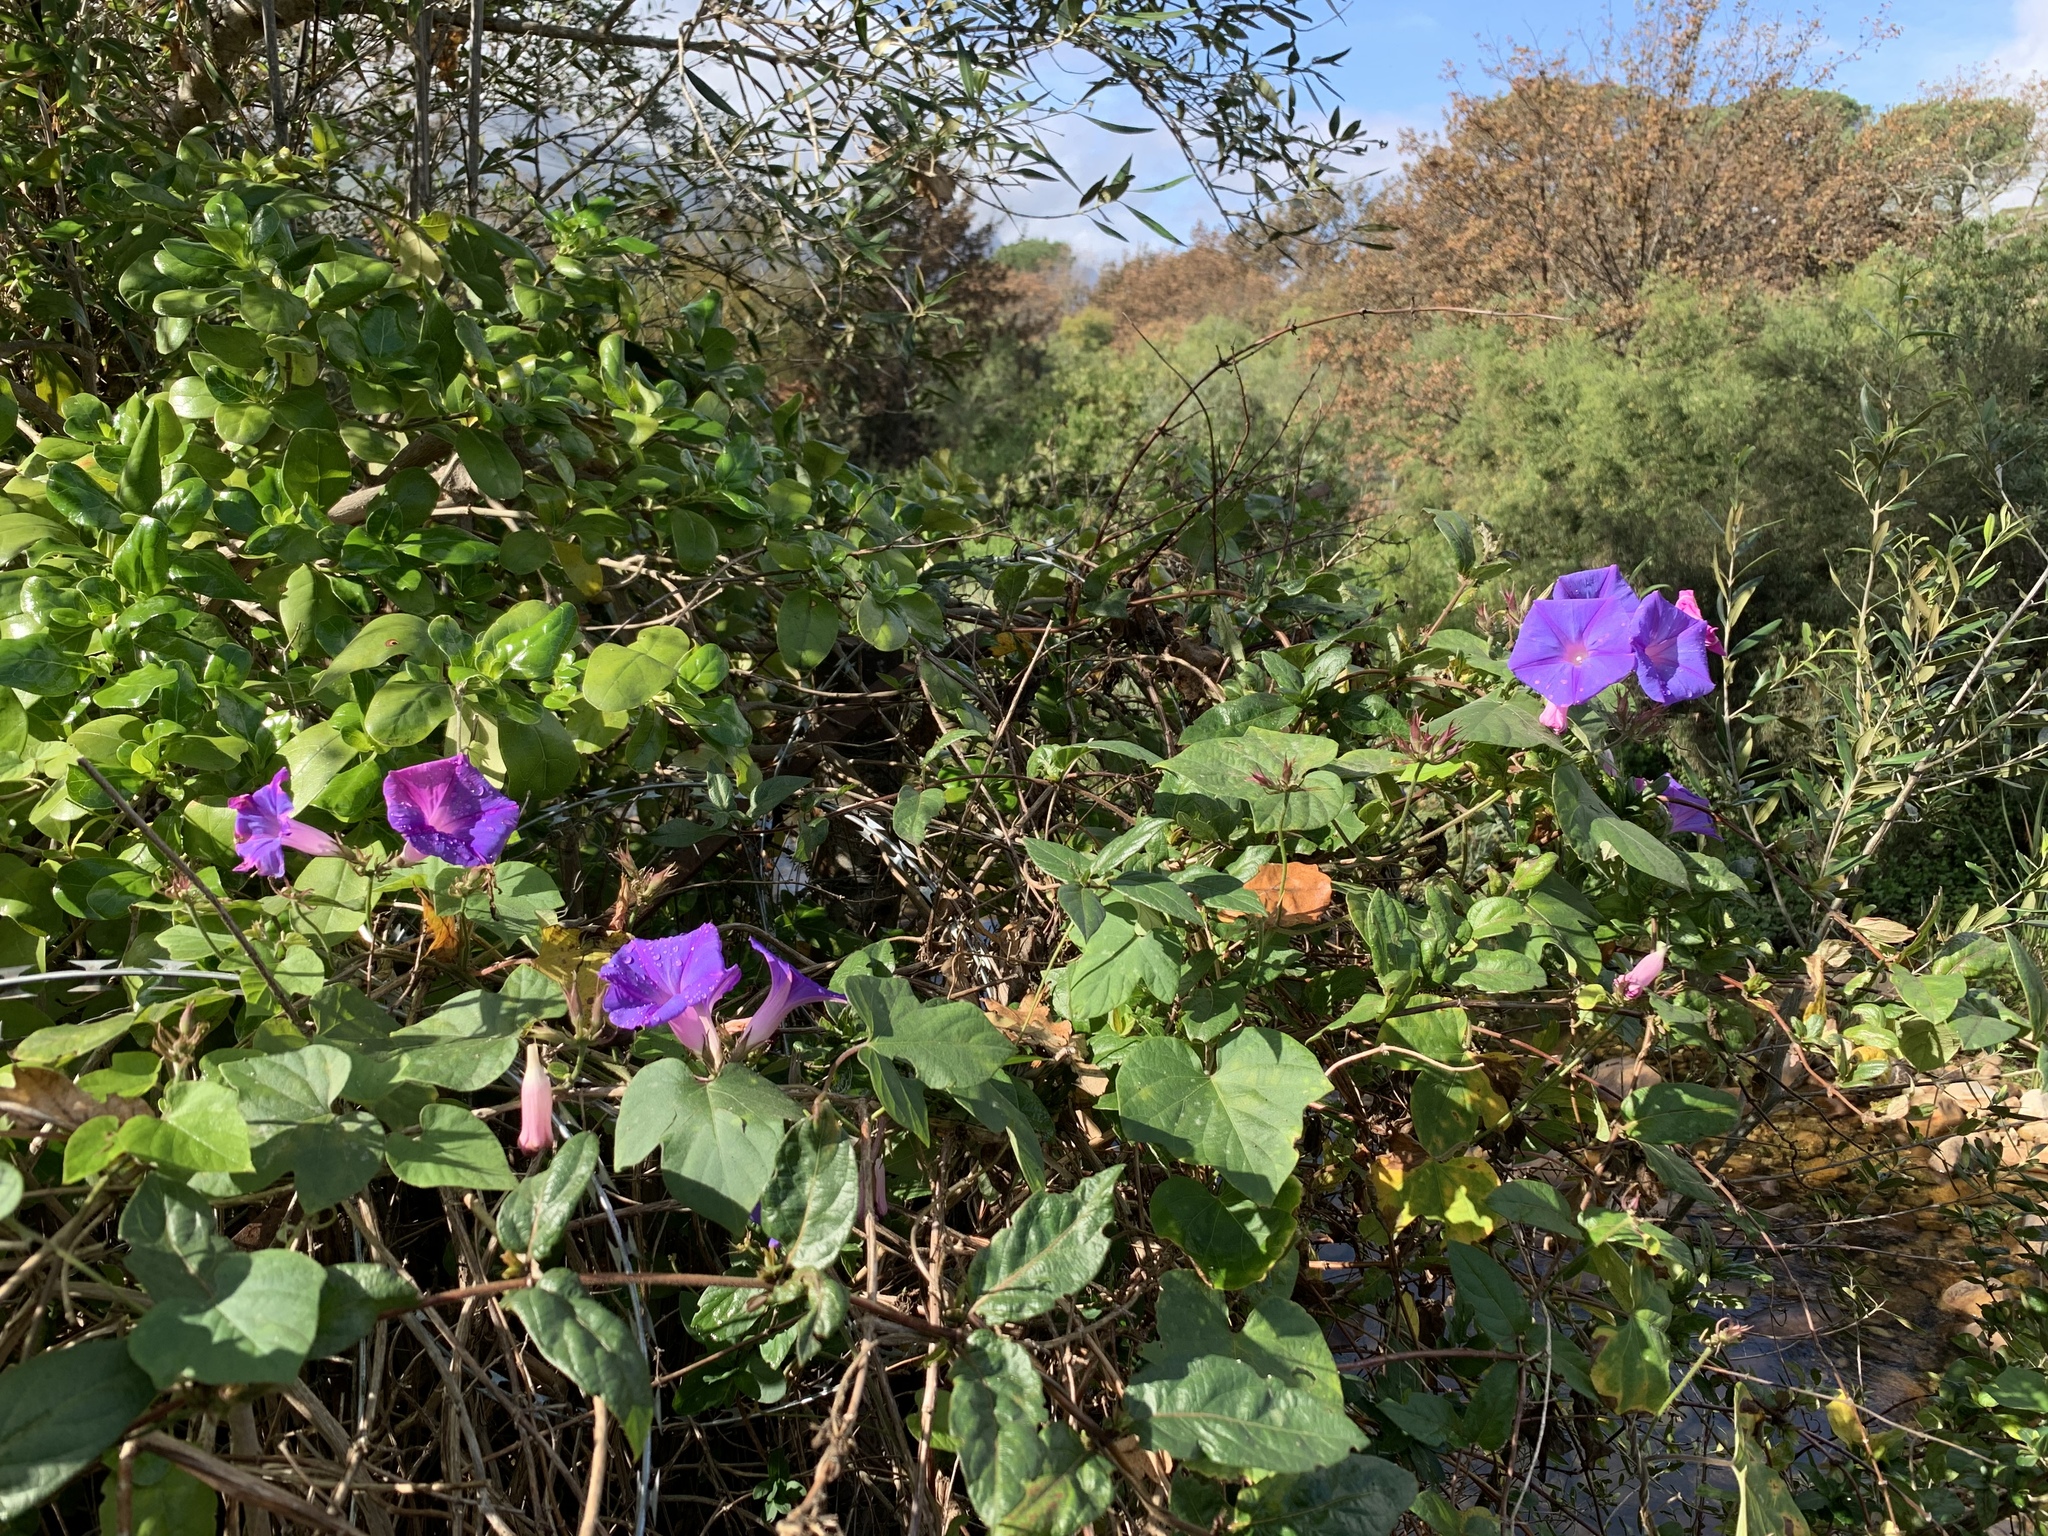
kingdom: Plantae
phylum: Tracheophyta
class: Magnoliopsida
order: Solanales
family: Convolvulaceae
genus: Ipomoea
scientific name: Ipomoea indica
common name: Blue dawnflower
